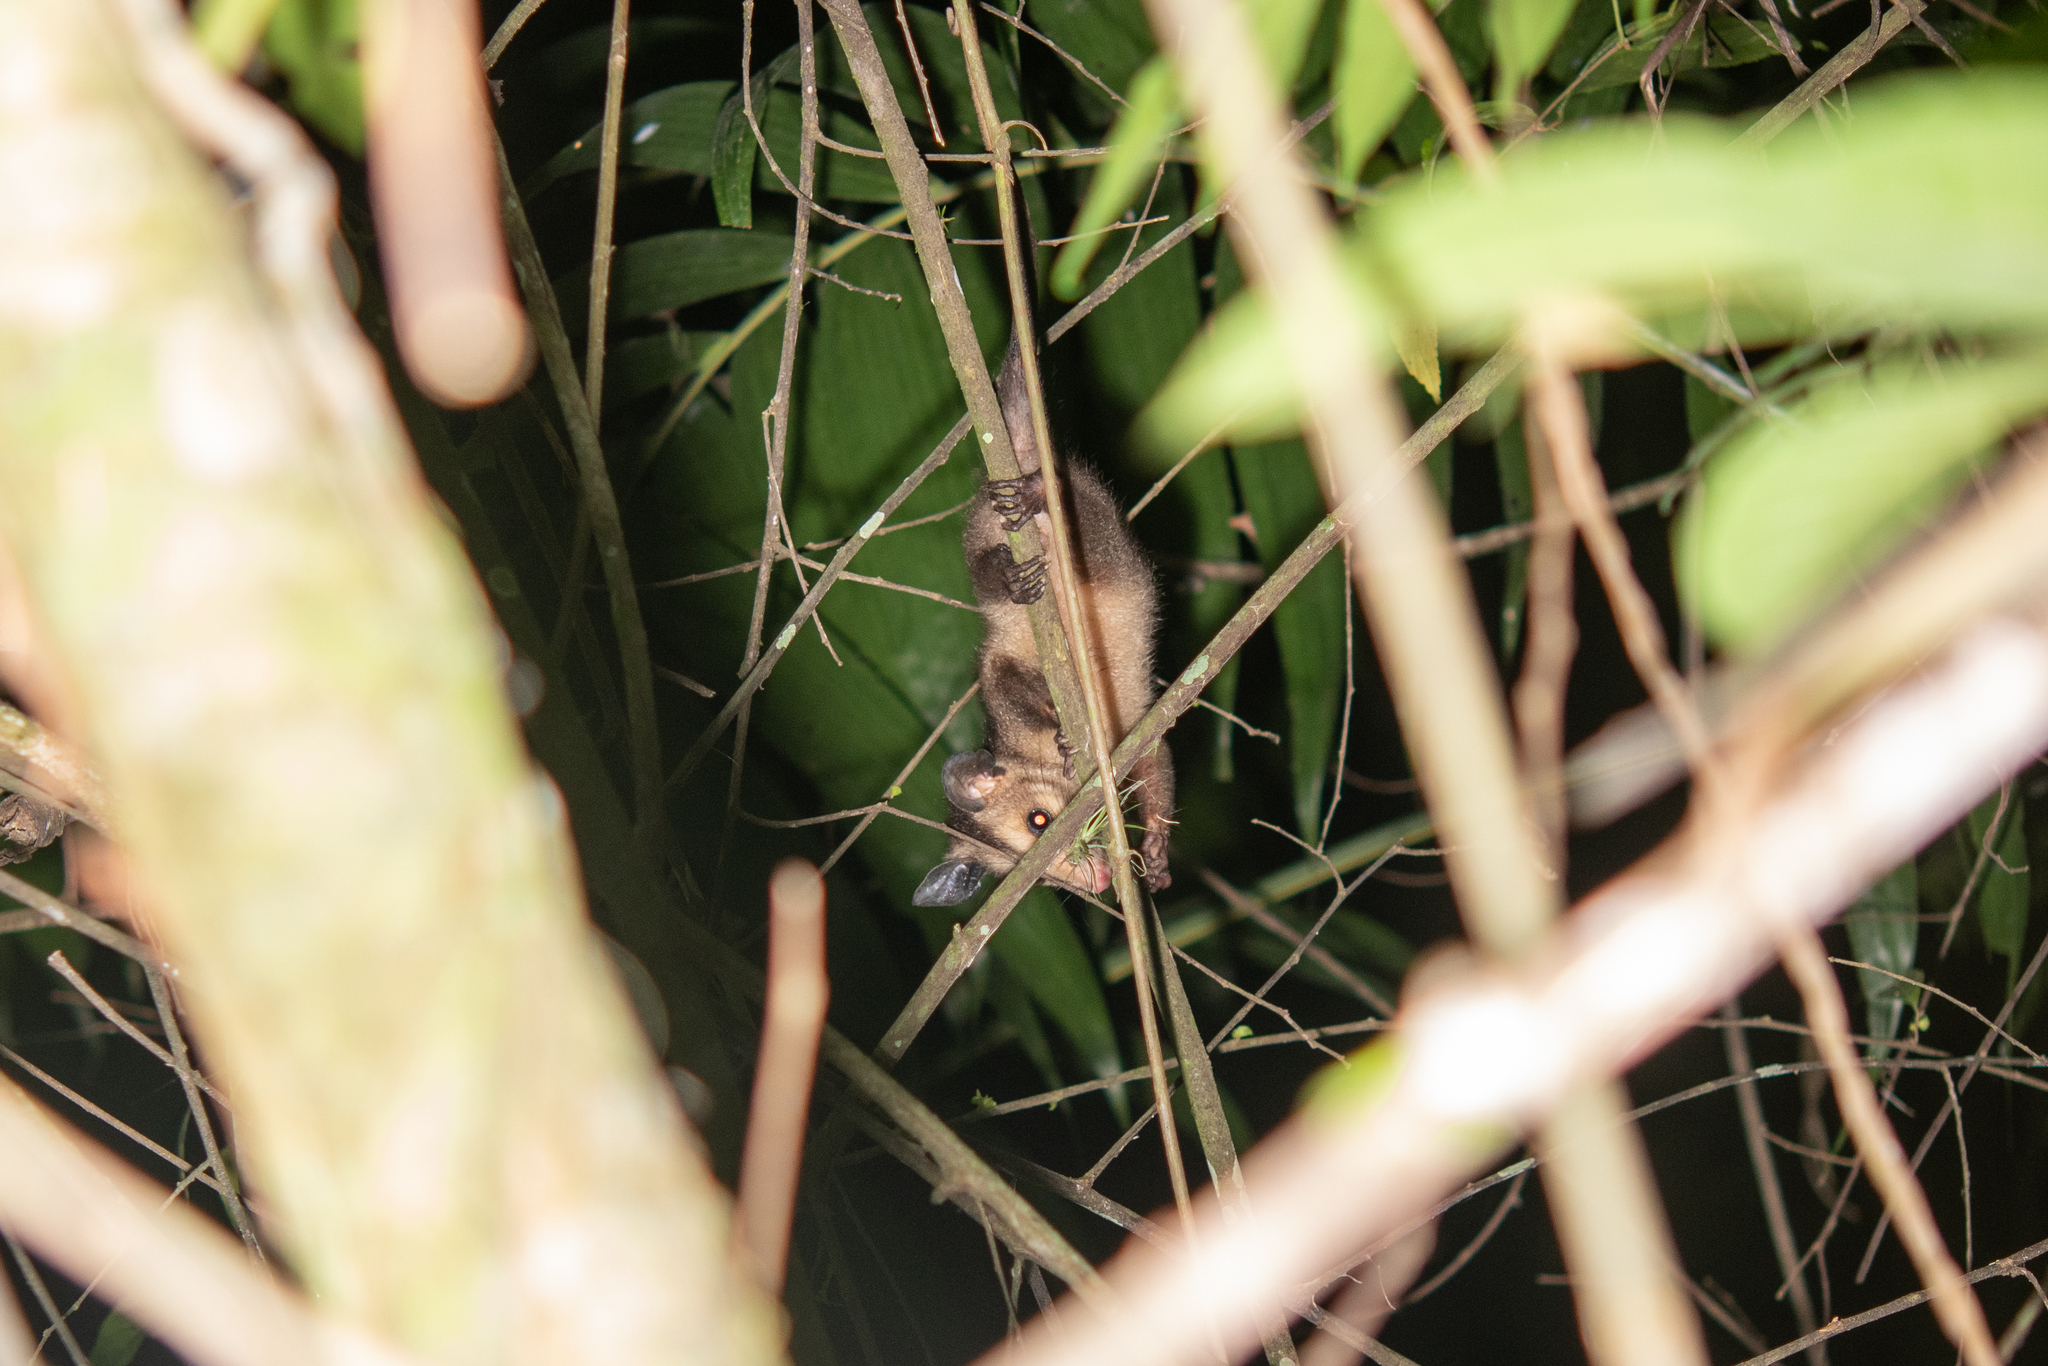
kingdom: Animalia
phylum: Chordata
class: Mammalia
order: Didelphimorphia
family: Didelphidae
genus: Didelphis
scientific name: Didelphis marsupialis
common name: Common opossum
